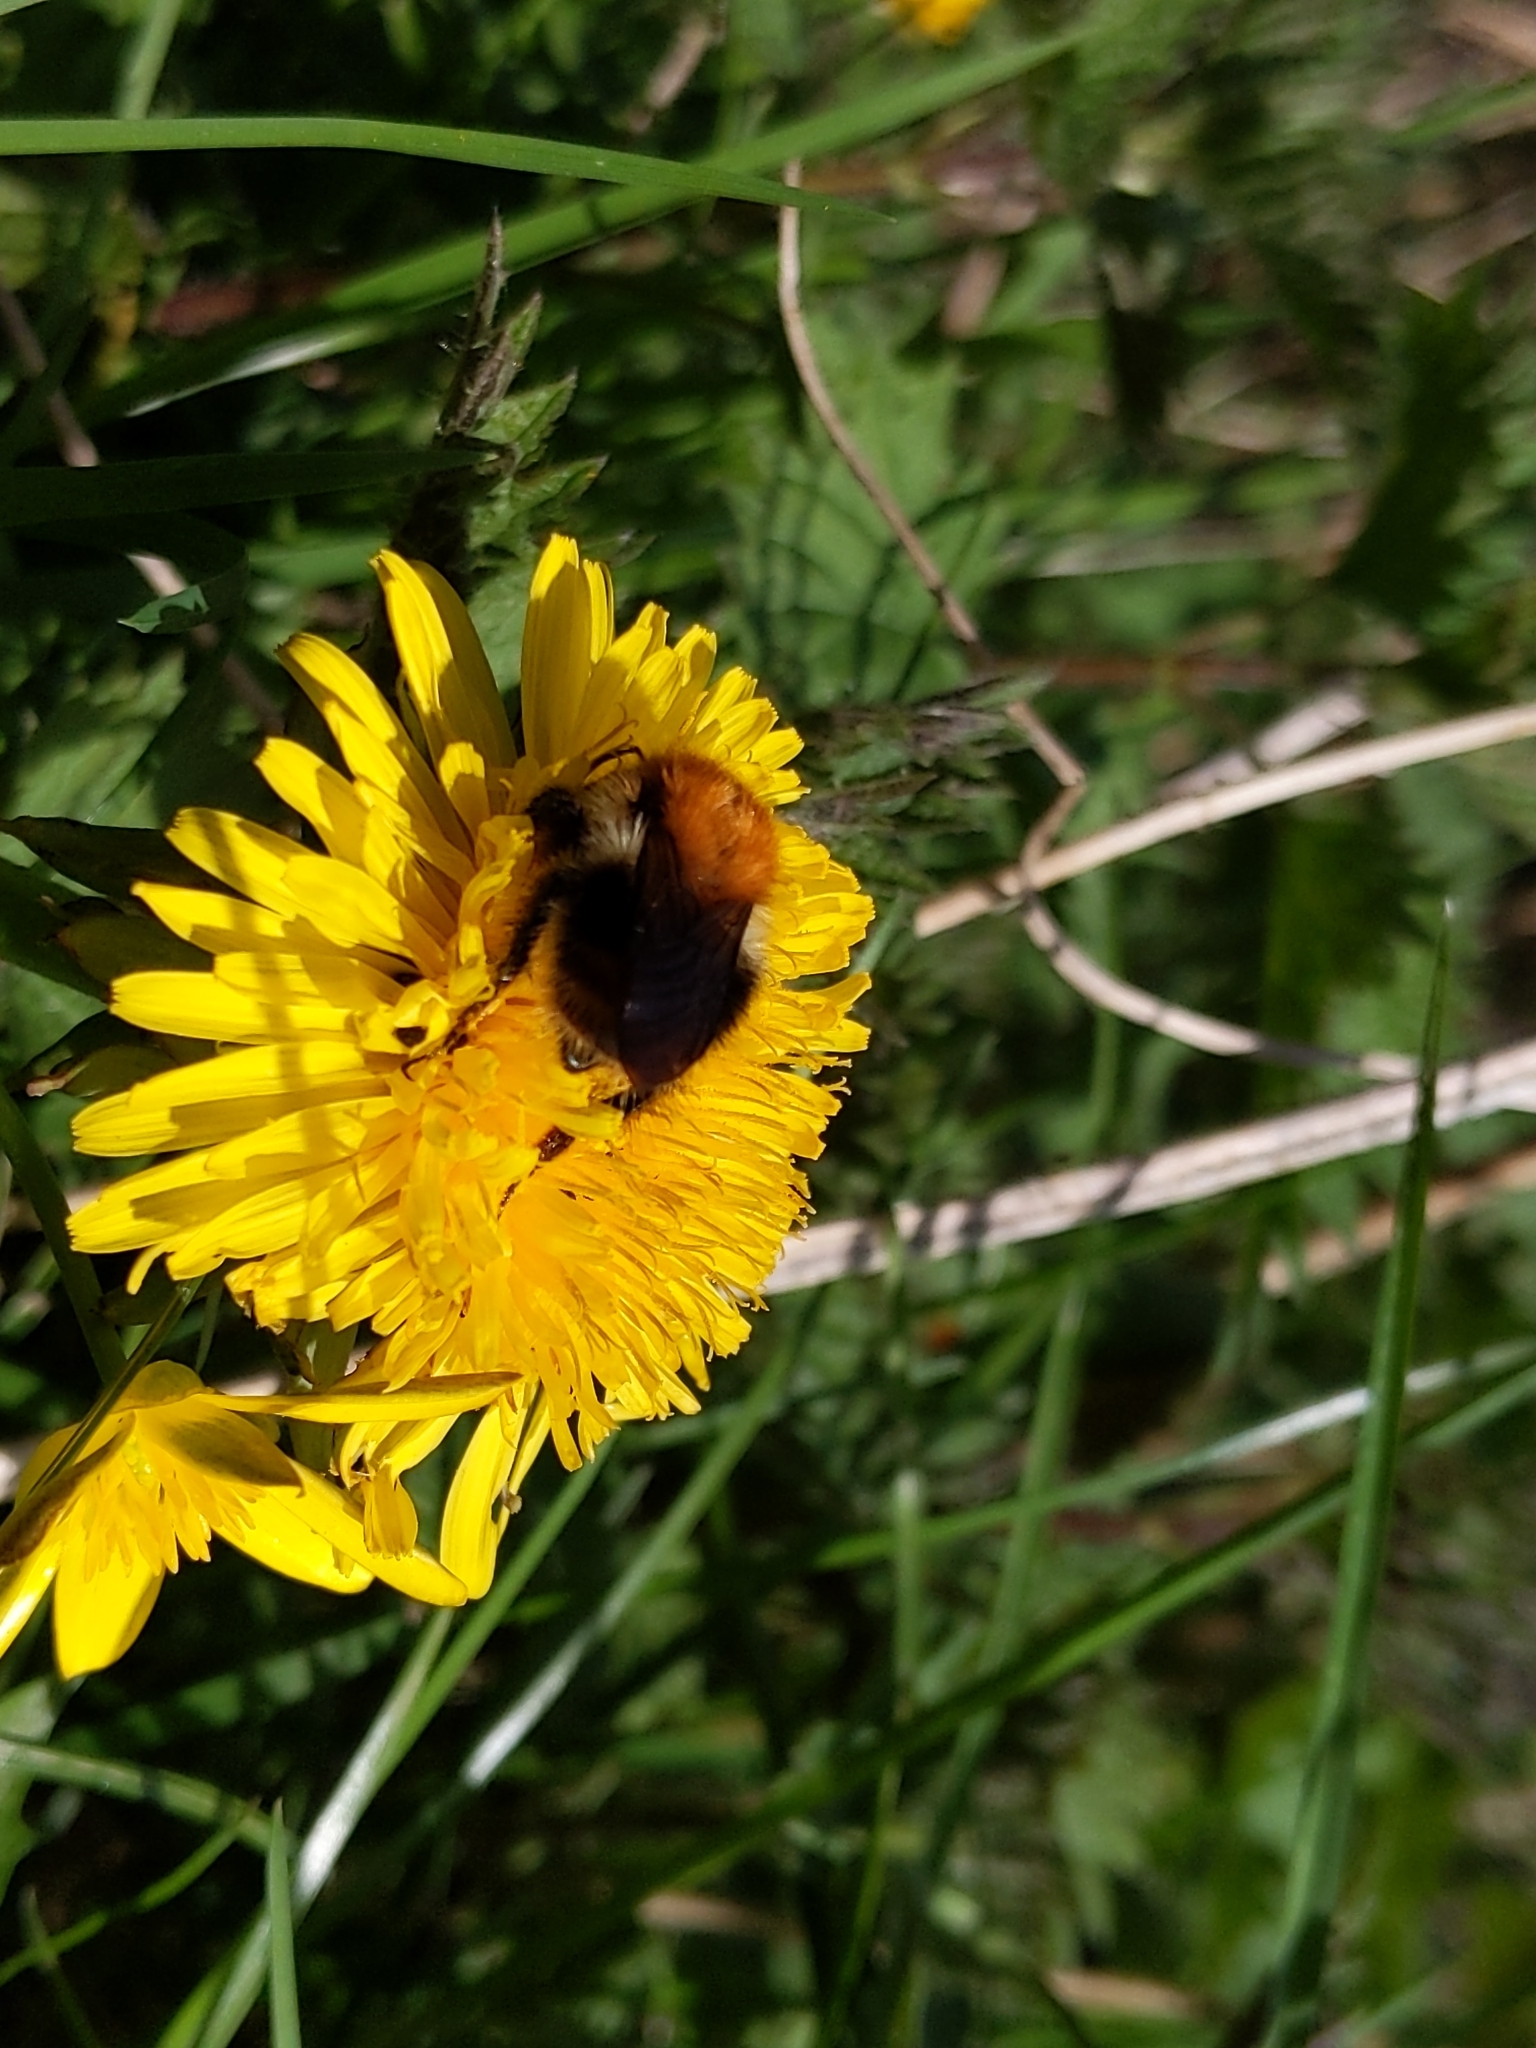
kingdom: Animalia
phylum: Arthropoda
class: Insecta
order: Hymenoptera
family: Apidae
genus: Bombus
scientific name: Bombus pascuorum
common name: Common carder bee
